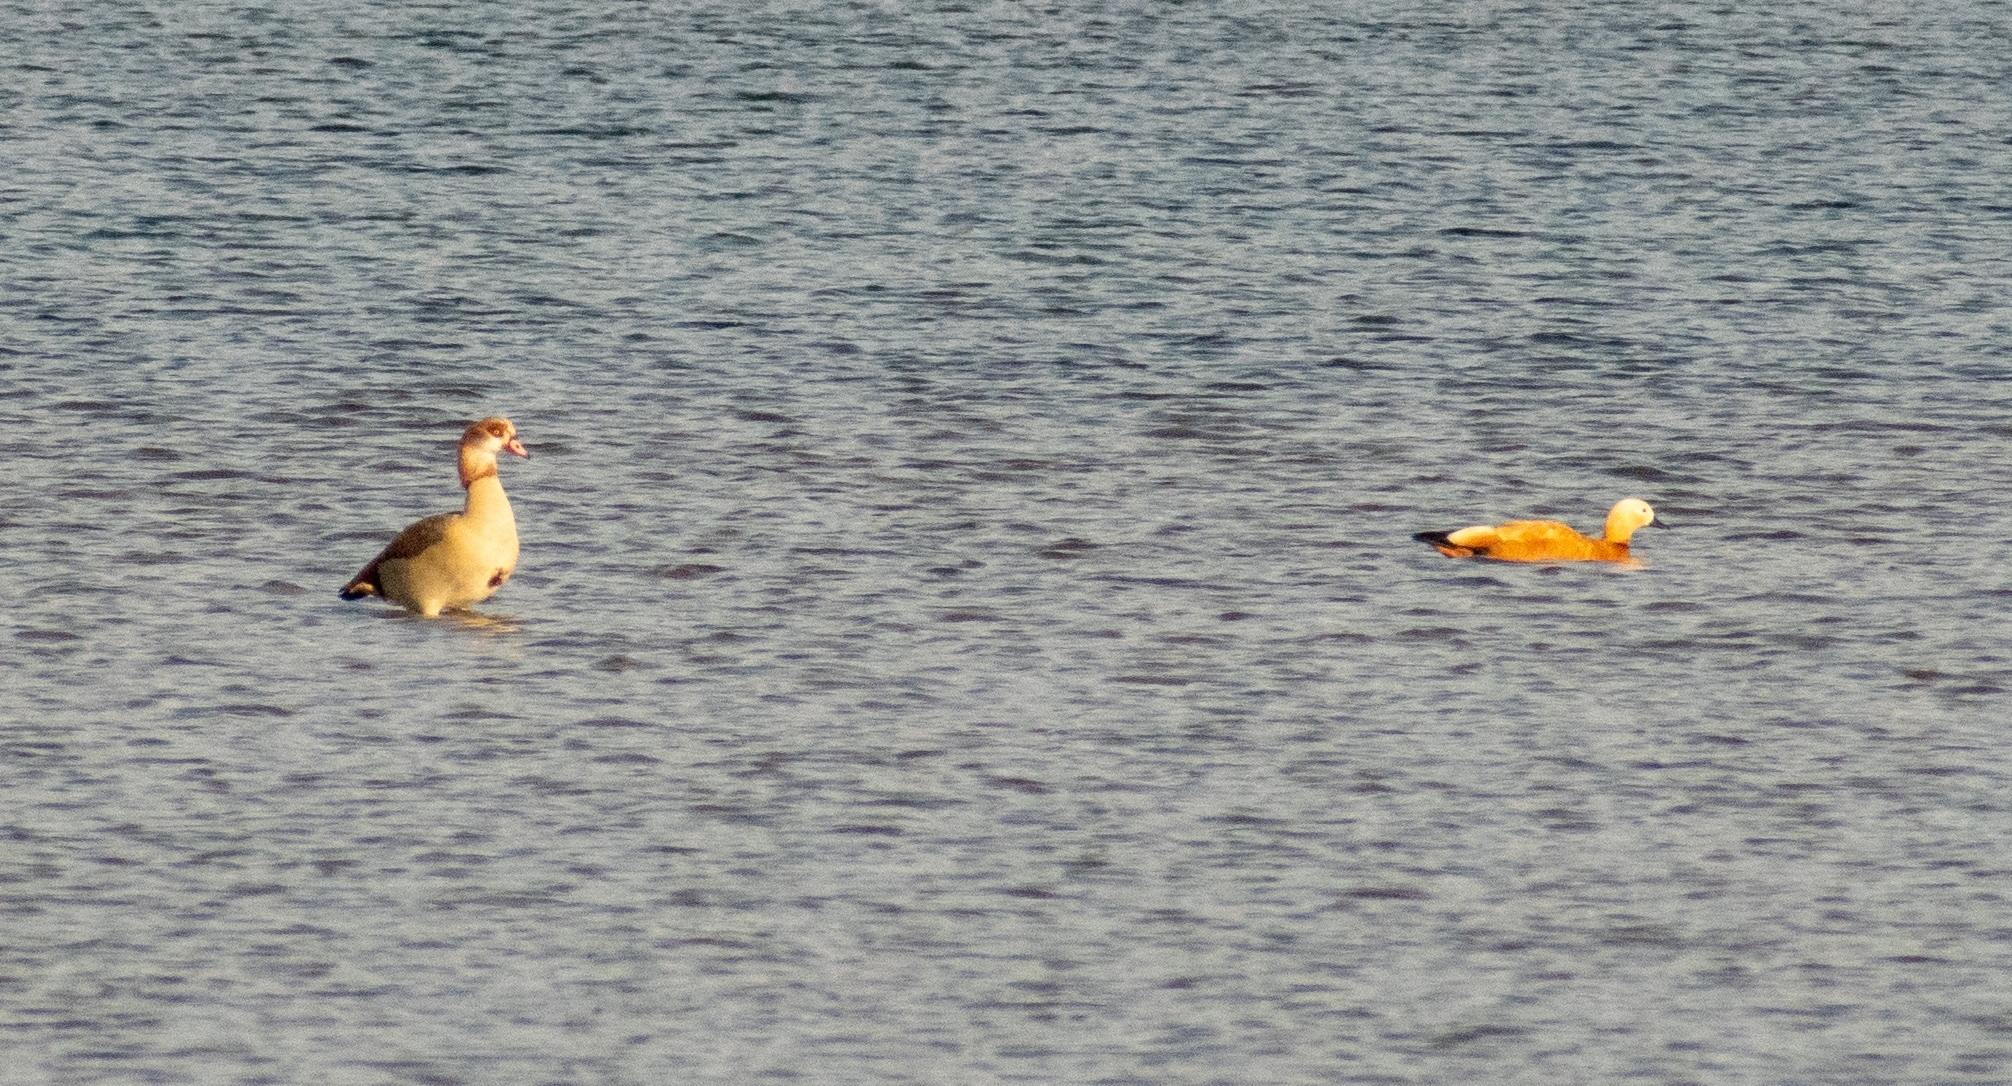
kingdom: Animalia
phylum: Chordata
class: Aves
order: Anseriformes
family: Anatidae
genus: Tadorna
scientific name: Tadorna ferruginea
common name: Ruddy shelduck
